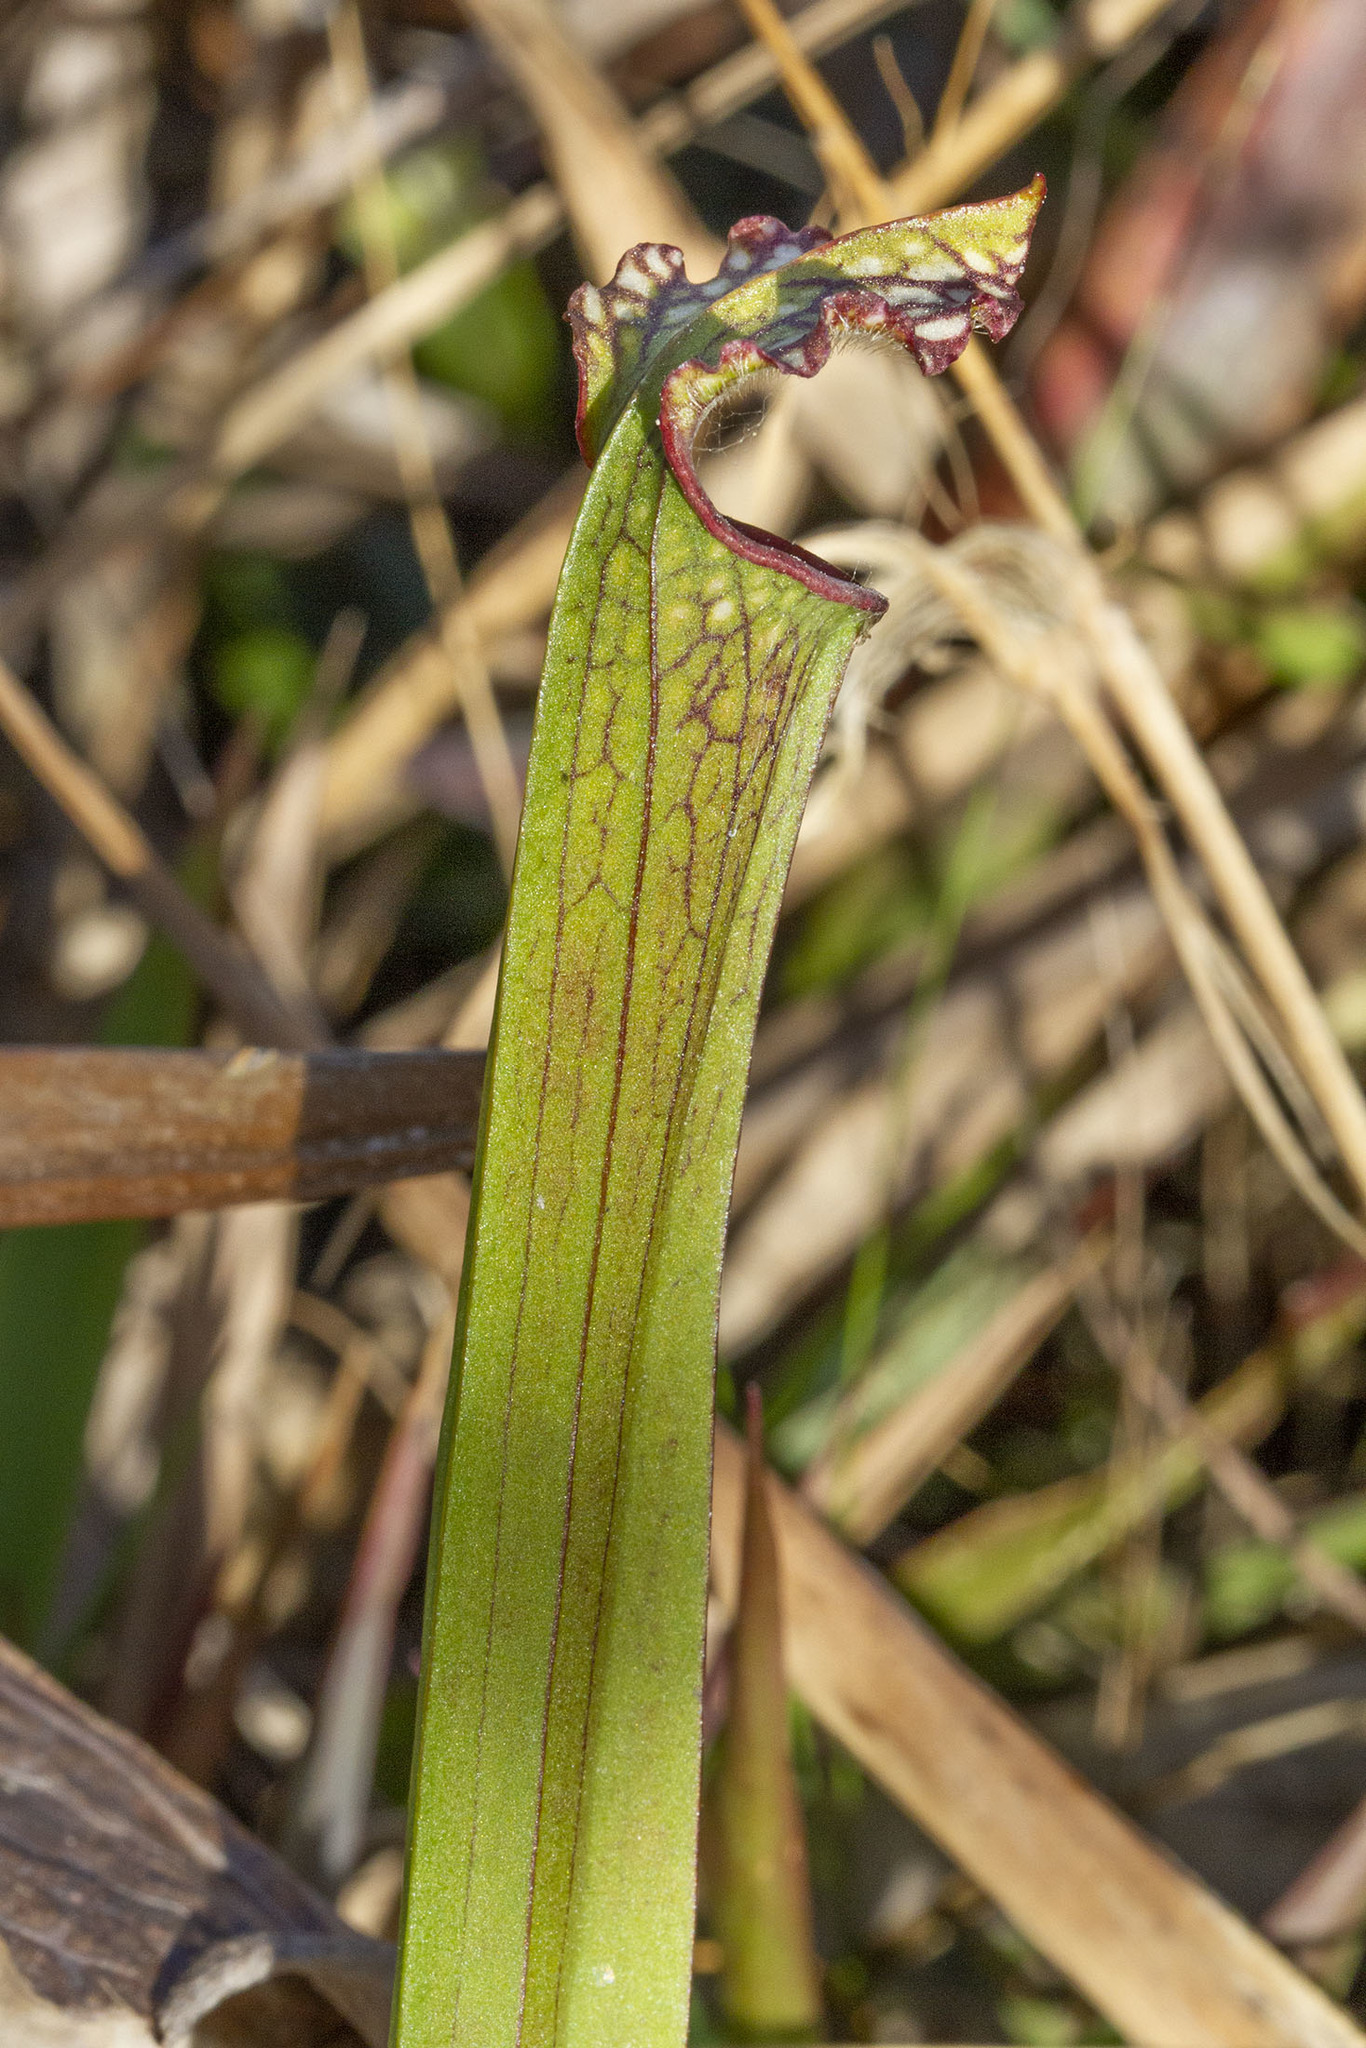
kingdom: Plantae
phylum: Tracheophyta
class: Magnoliopsida
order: Ericales
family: Sarraceniaceae
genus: Sarracenia
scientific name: Sarracenia leucophylla
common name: Purple trumpetleaf
